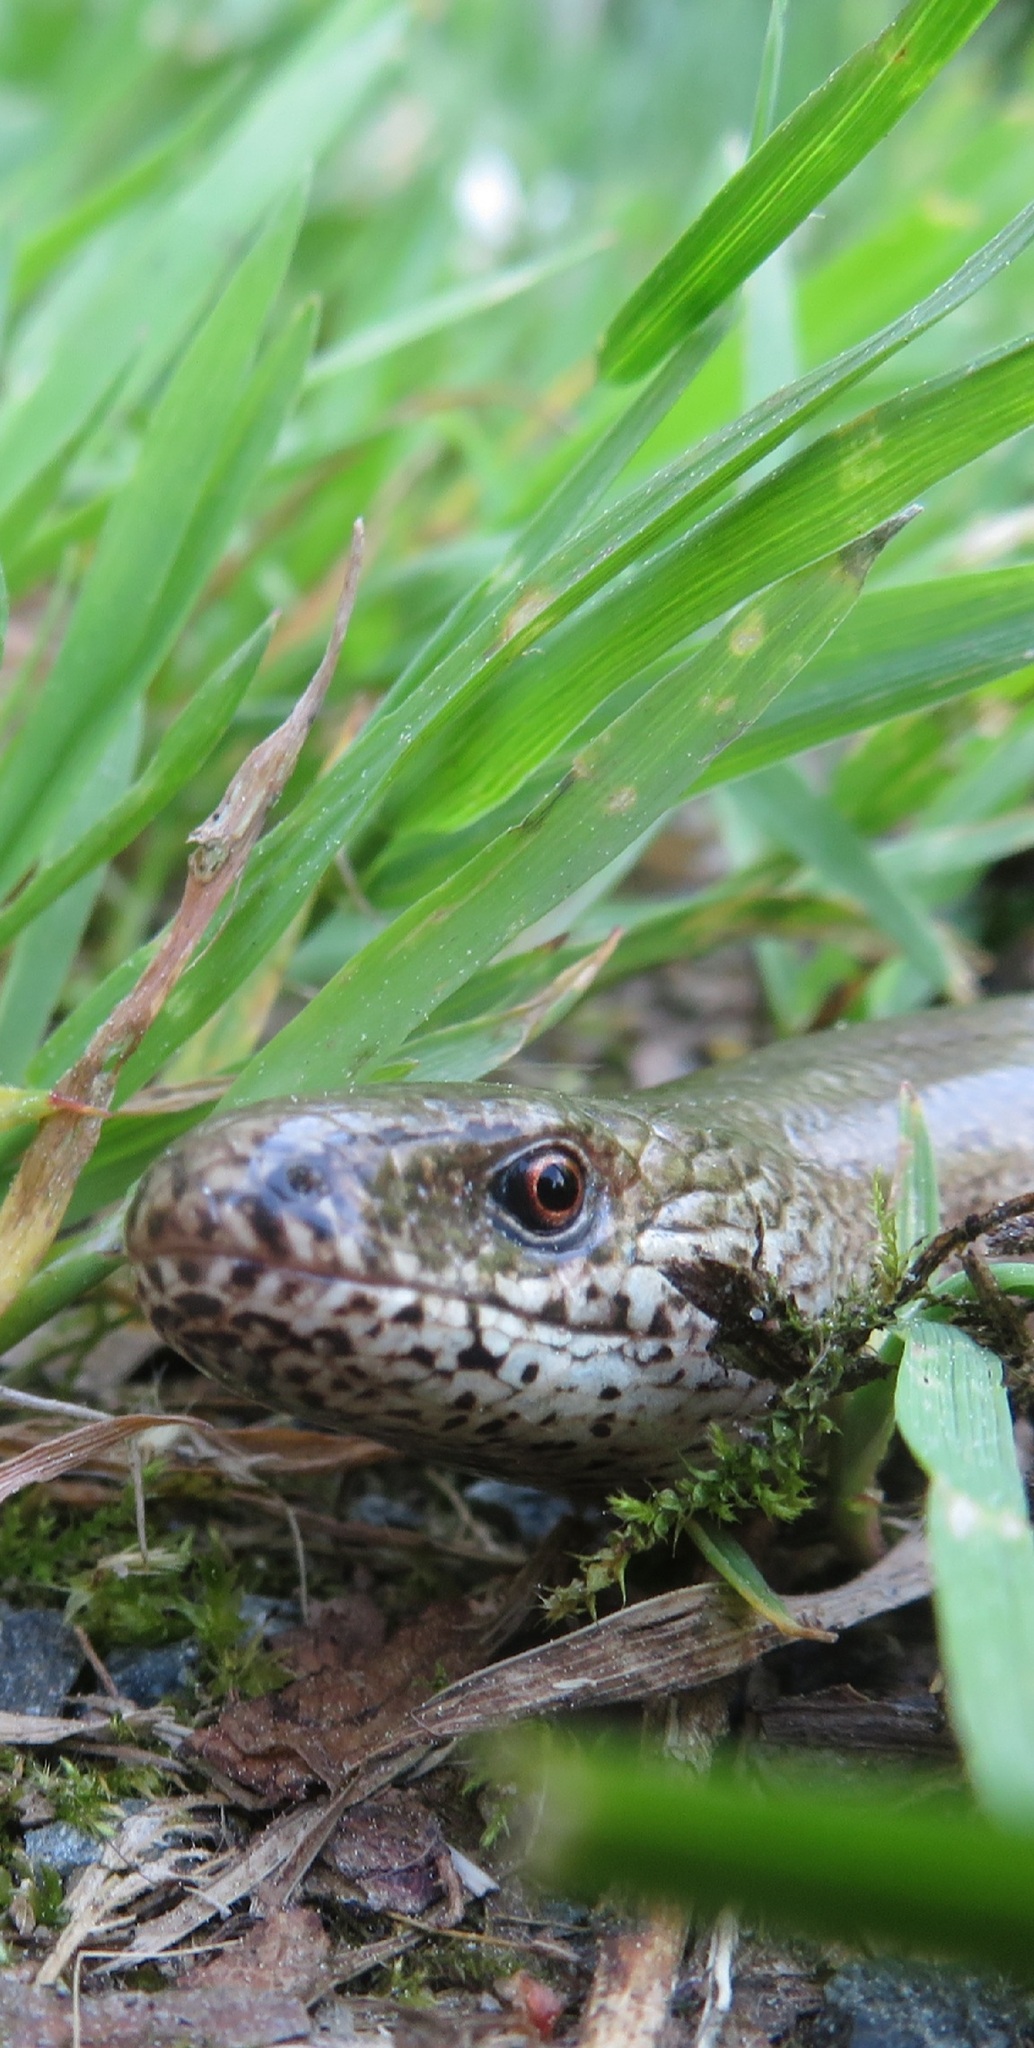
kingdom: Animalia
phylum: Chordata
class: Squamata
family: Anguidae
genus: Anguis
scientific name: Anguis fragilis
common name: Slow worm
